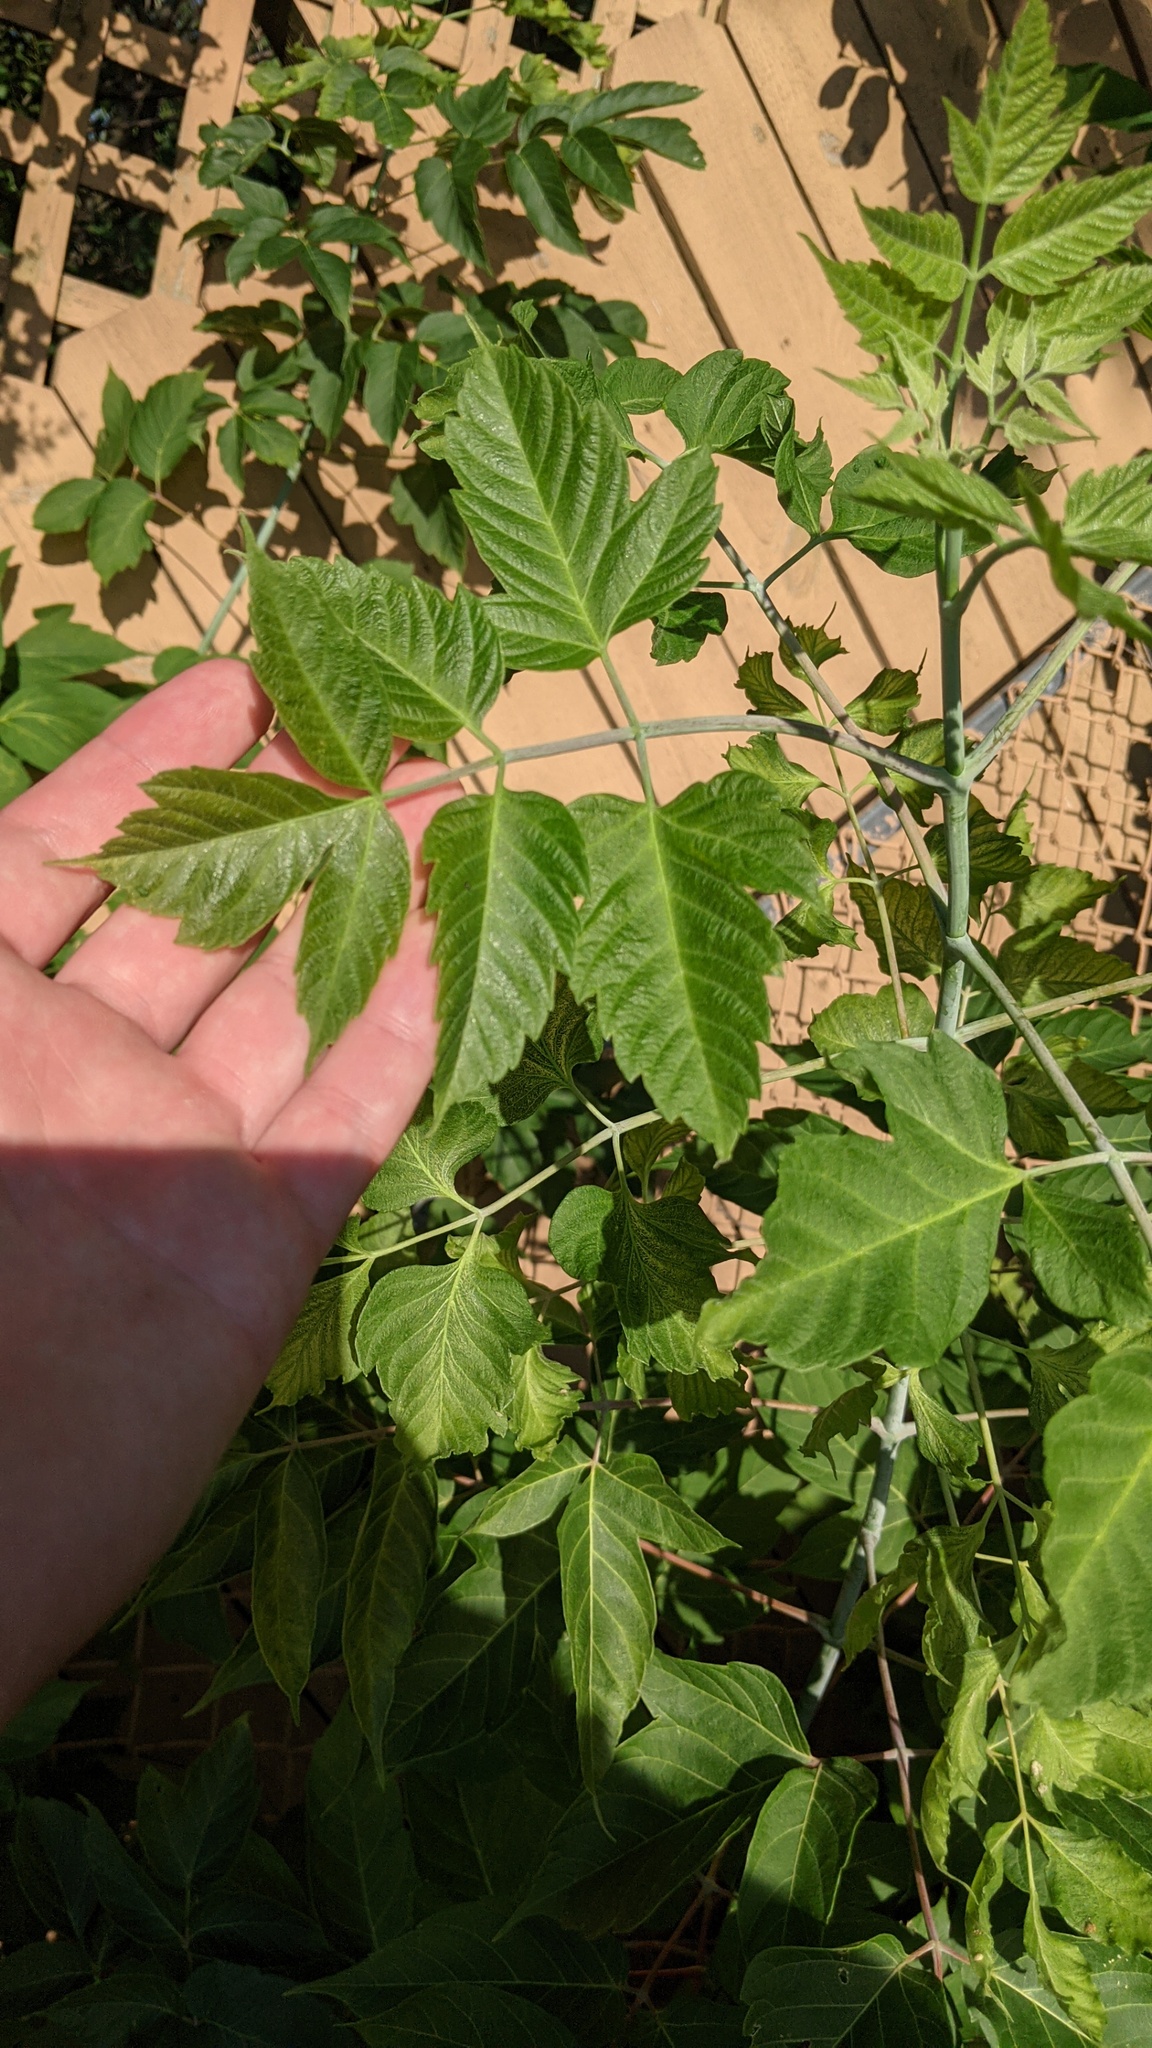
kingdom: Plantae
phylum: Tracheophyta
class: Magnoliopsida
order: Sapindales
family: Sapindaceae
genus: Acer
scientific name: Acer negundo
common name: Ashleaf maple
